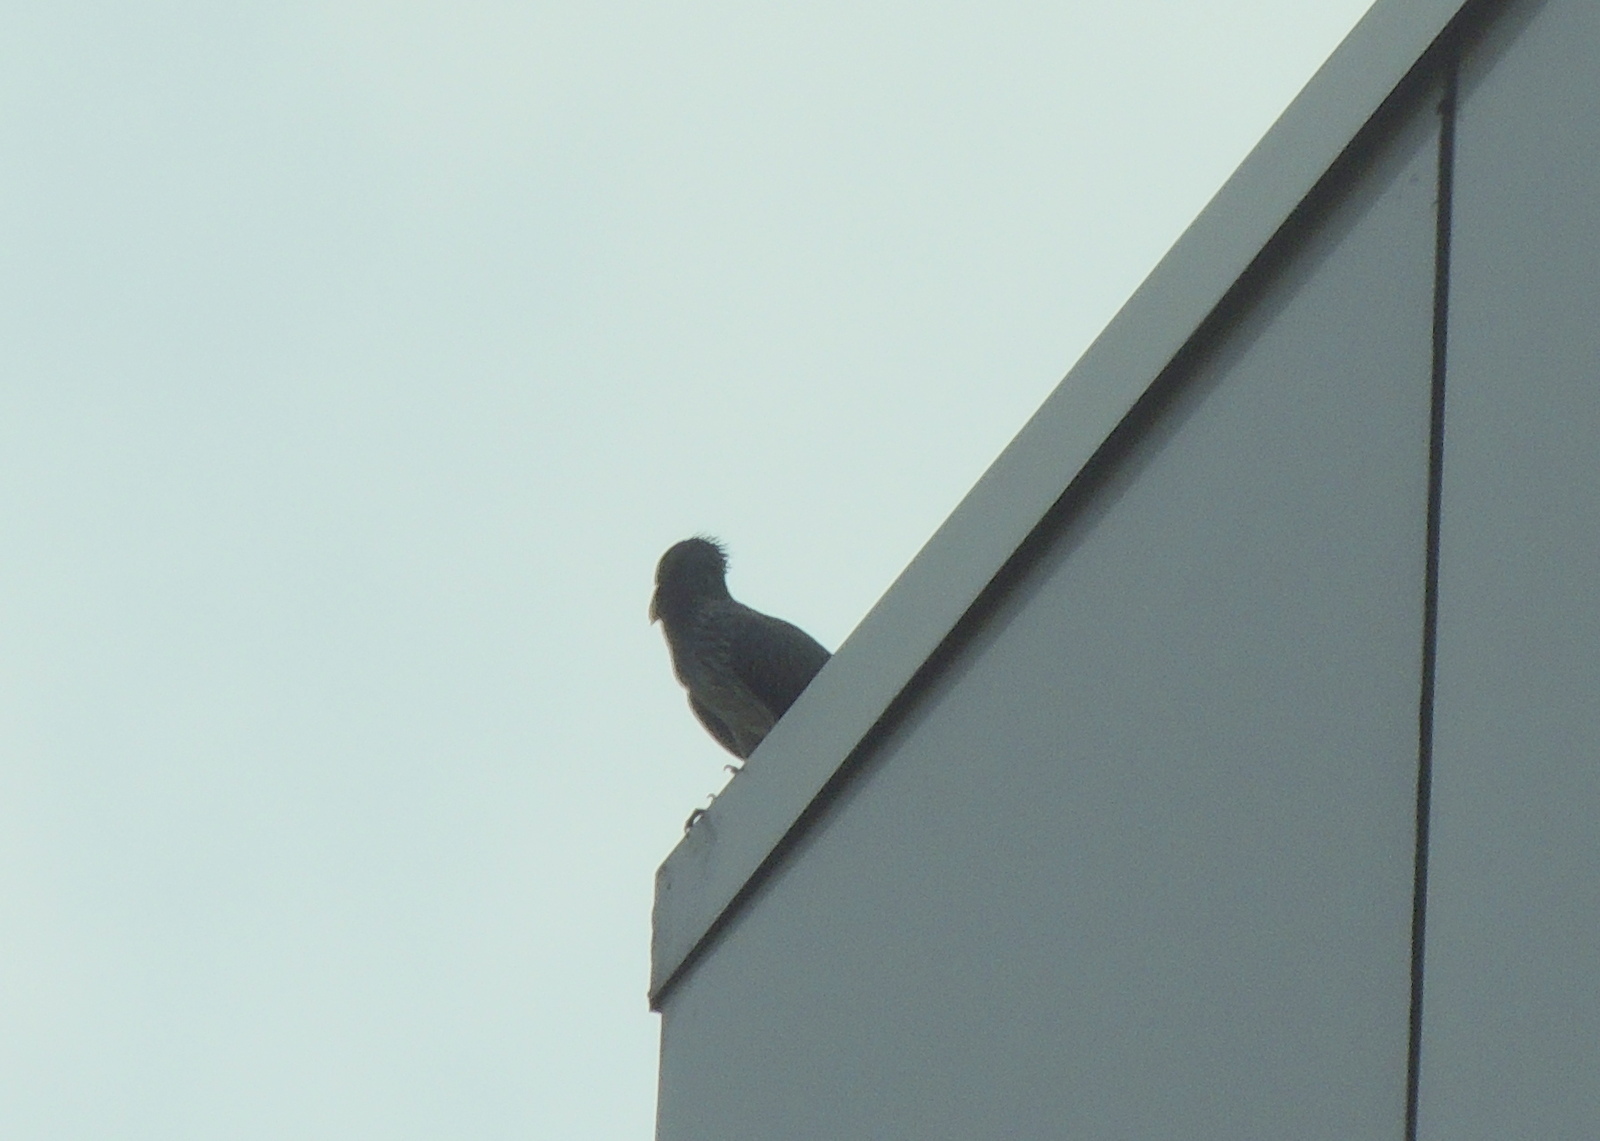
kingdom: Animalia
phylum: Chordata
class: Aves
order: Musophagiformes
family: Musophagidae
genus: Crinifer
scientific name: Crinifer piscator
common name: Western plantain-eater
